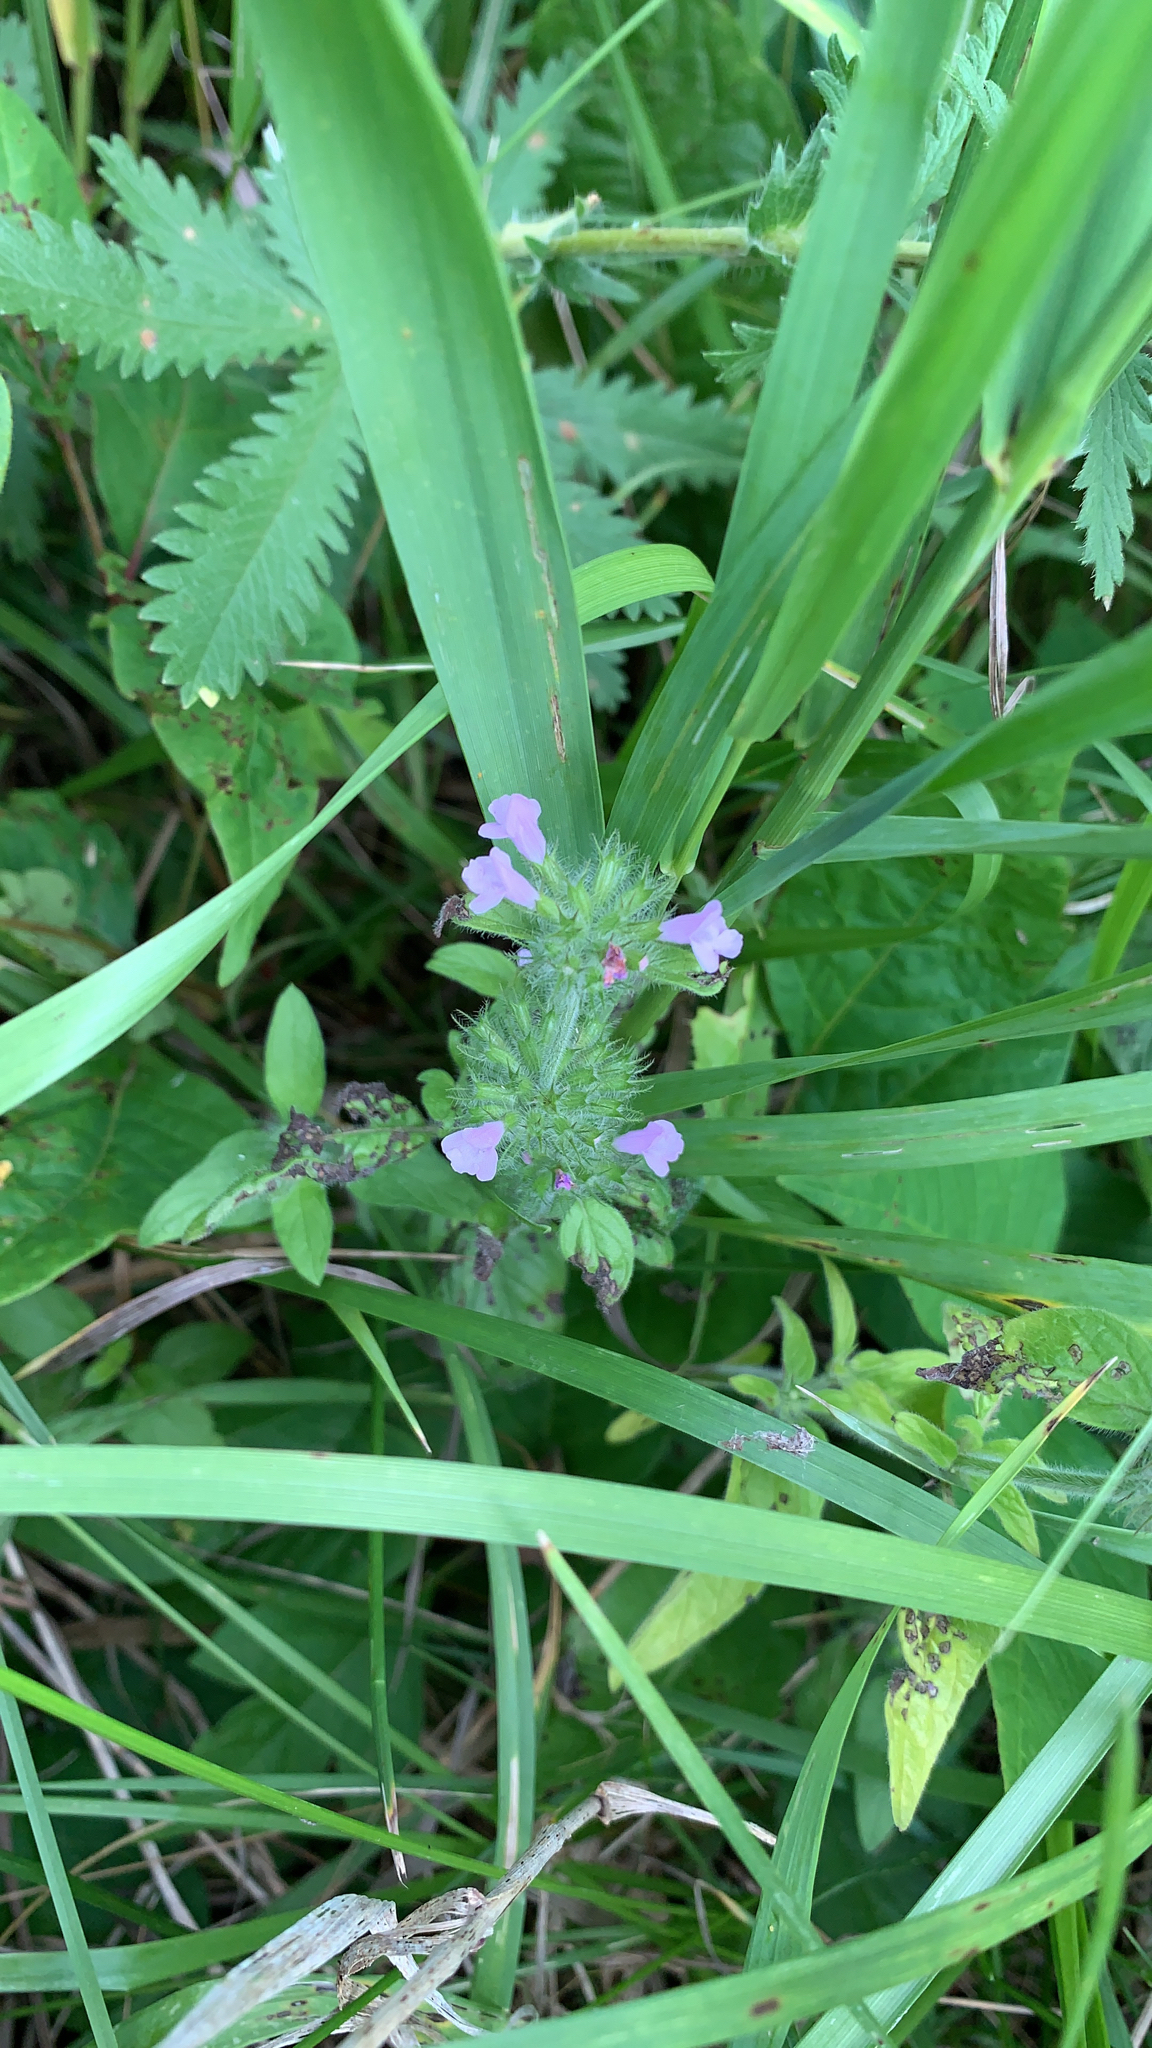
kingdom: Plantae
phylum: Tracheophyta
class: Magnoliopsida
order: Lamiales
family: Lamiaceae
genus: Clinopodium
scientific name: Clinopodium vulgare
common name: Wild basil
